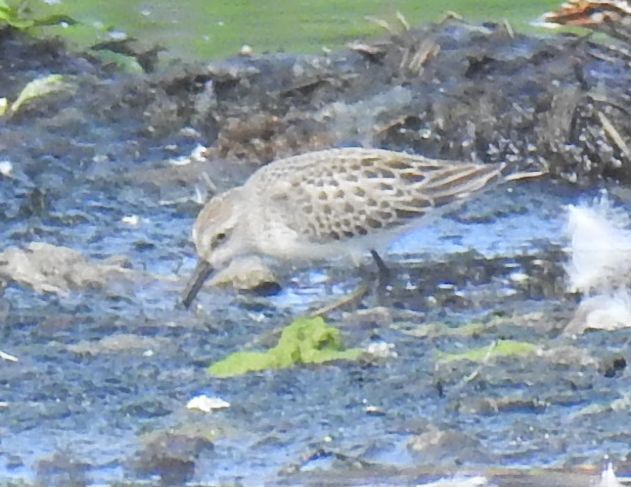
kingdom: Animalia
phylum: Chordata
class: Aves
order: Charadriiformes
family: Scolopacidae
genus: Calidris
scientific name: Calidris pusilla
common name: Semipalmated sandpiper
